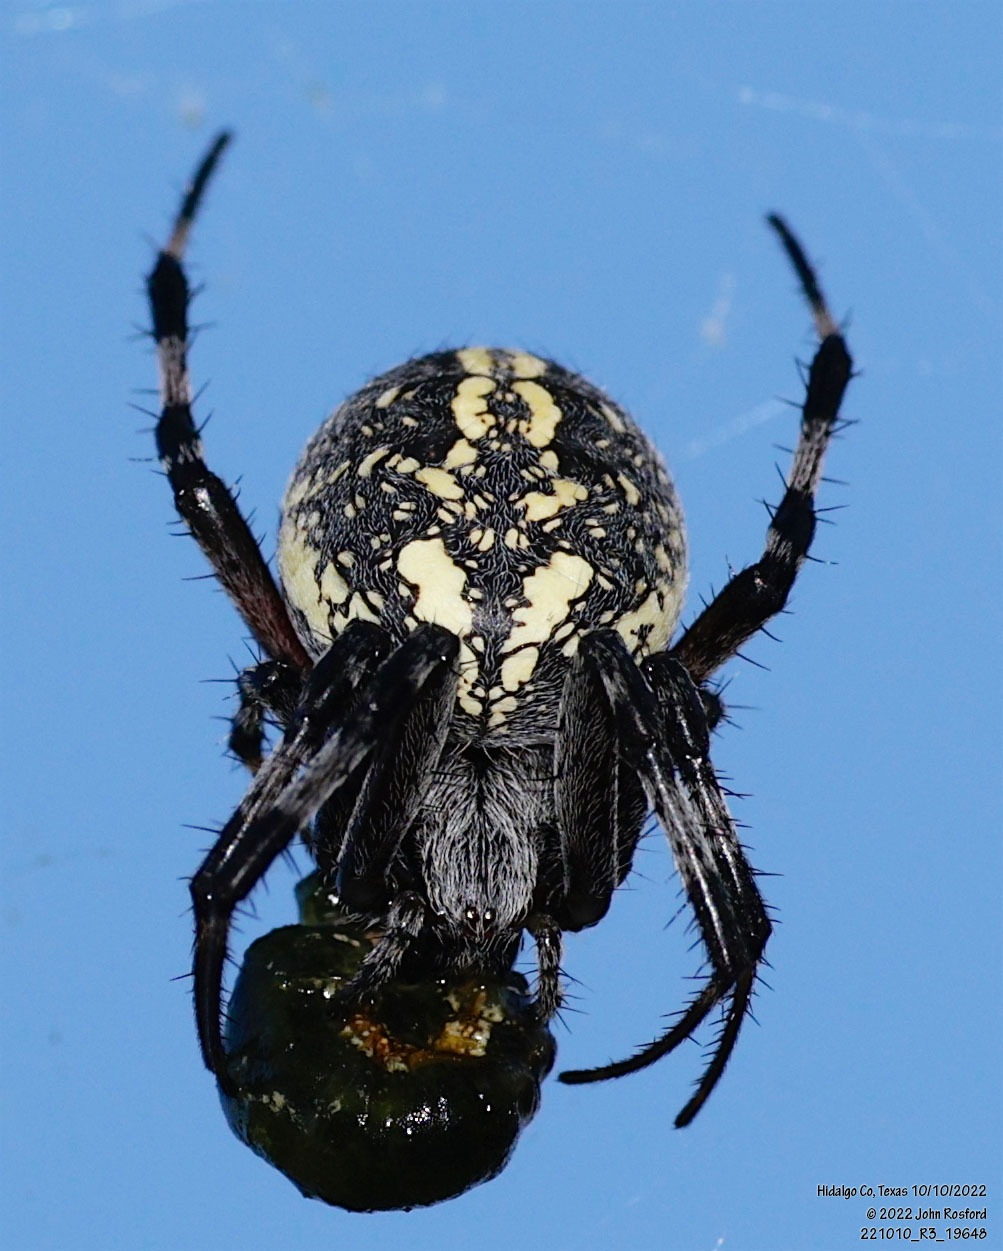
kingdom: Animalia
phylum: Arthropoda
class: Arachnida
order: Araneae
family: Araneidae
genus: Neoscona
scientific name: Neoscona oaxacensis
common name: Orb weavers
